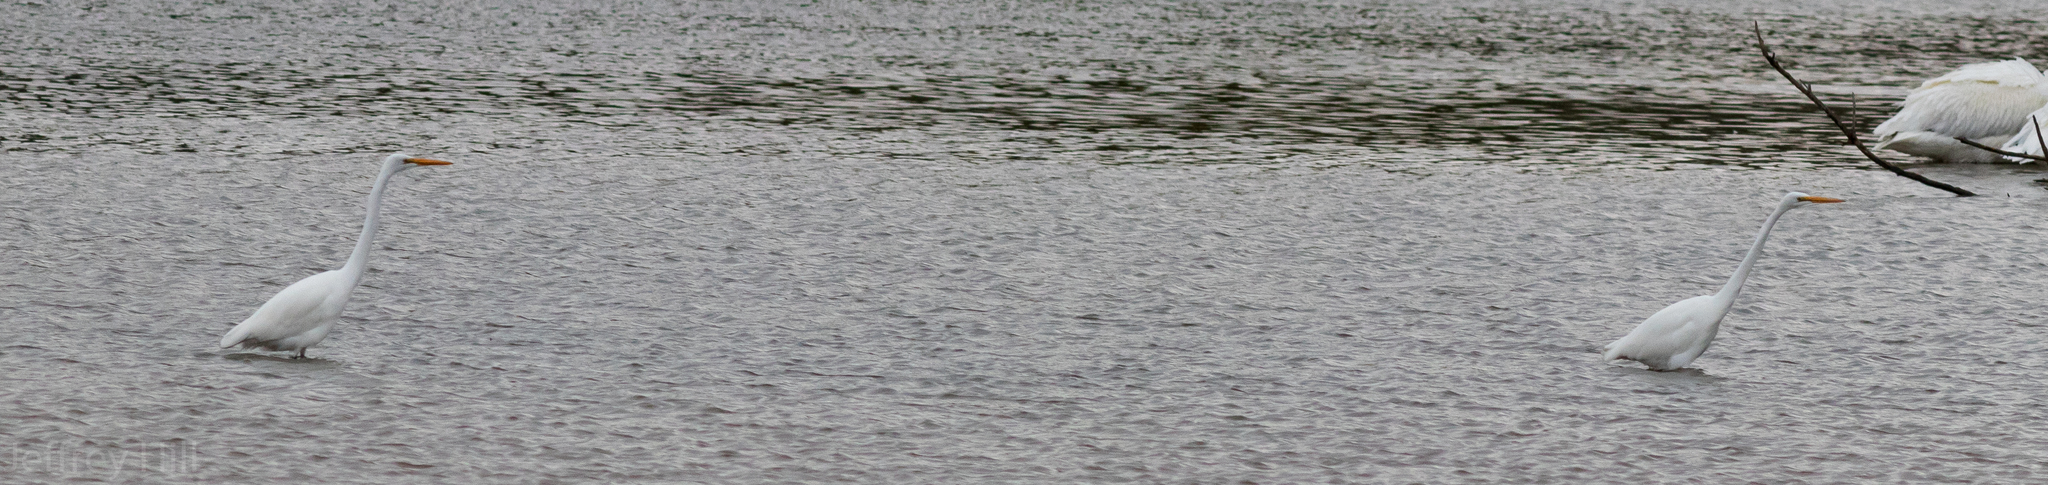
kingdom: Animalia
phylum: Chordata
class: Aves
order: Pelecaniformes
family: Ardeidae
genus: Ardea
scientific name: Ardea alba
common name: Great egret
